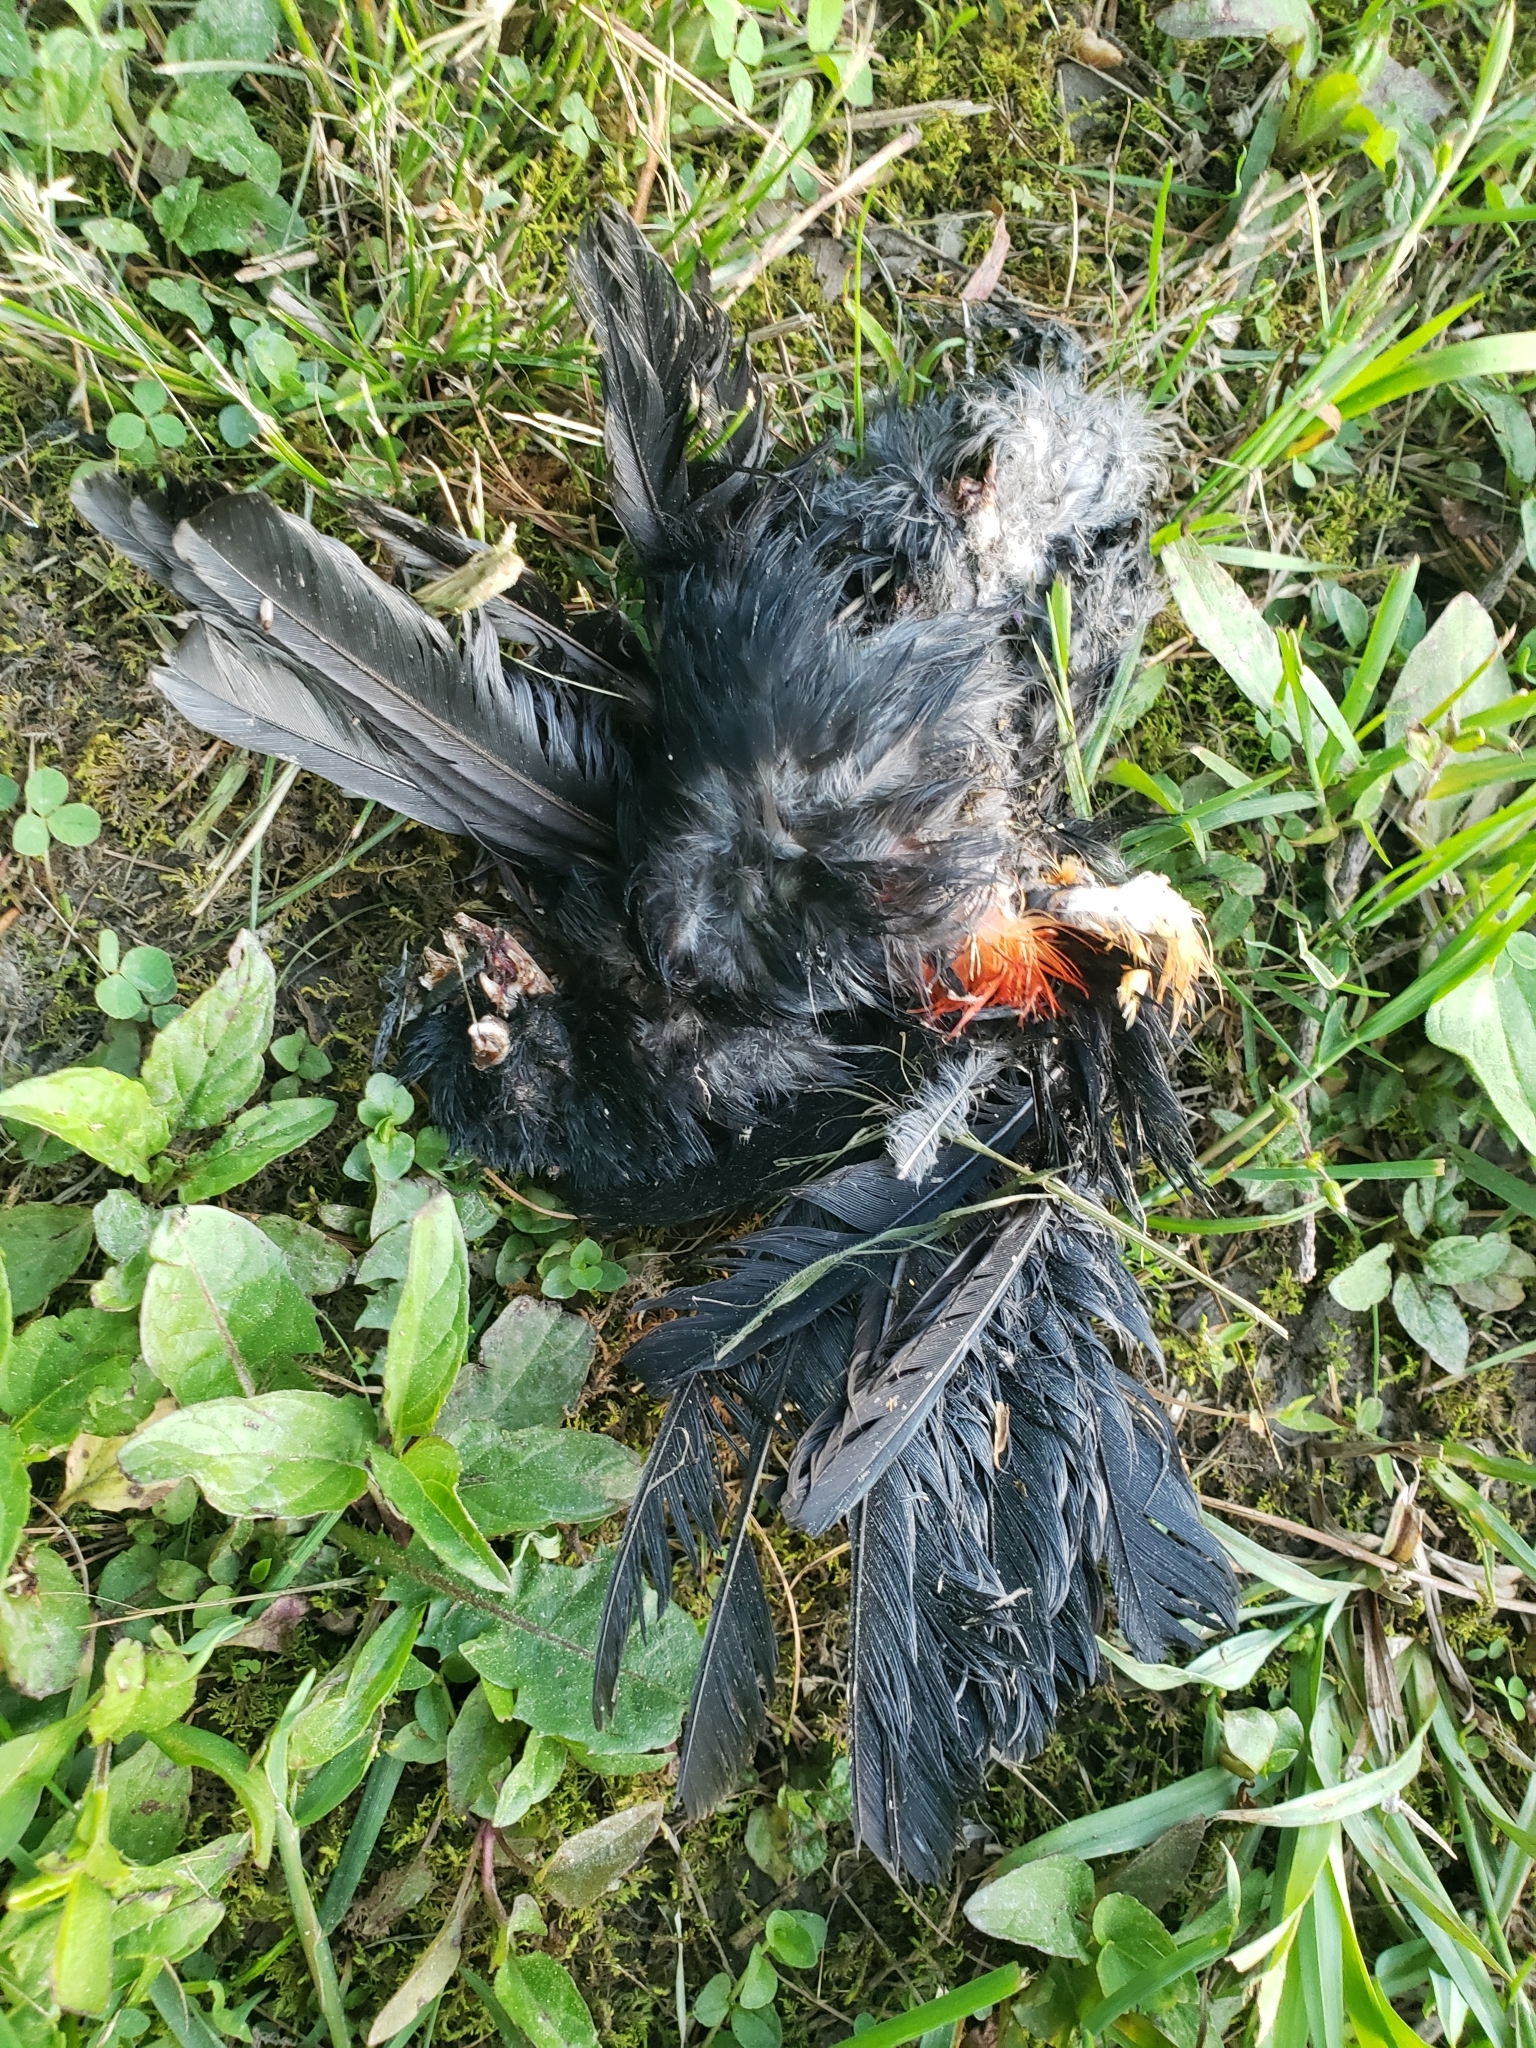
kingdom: Animalia
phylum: Chordata
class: Aves
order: Passeriformes
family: Icteridae
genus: Agelaius
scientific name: Agelaius phoeniceus
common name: Red-winged blackbird
